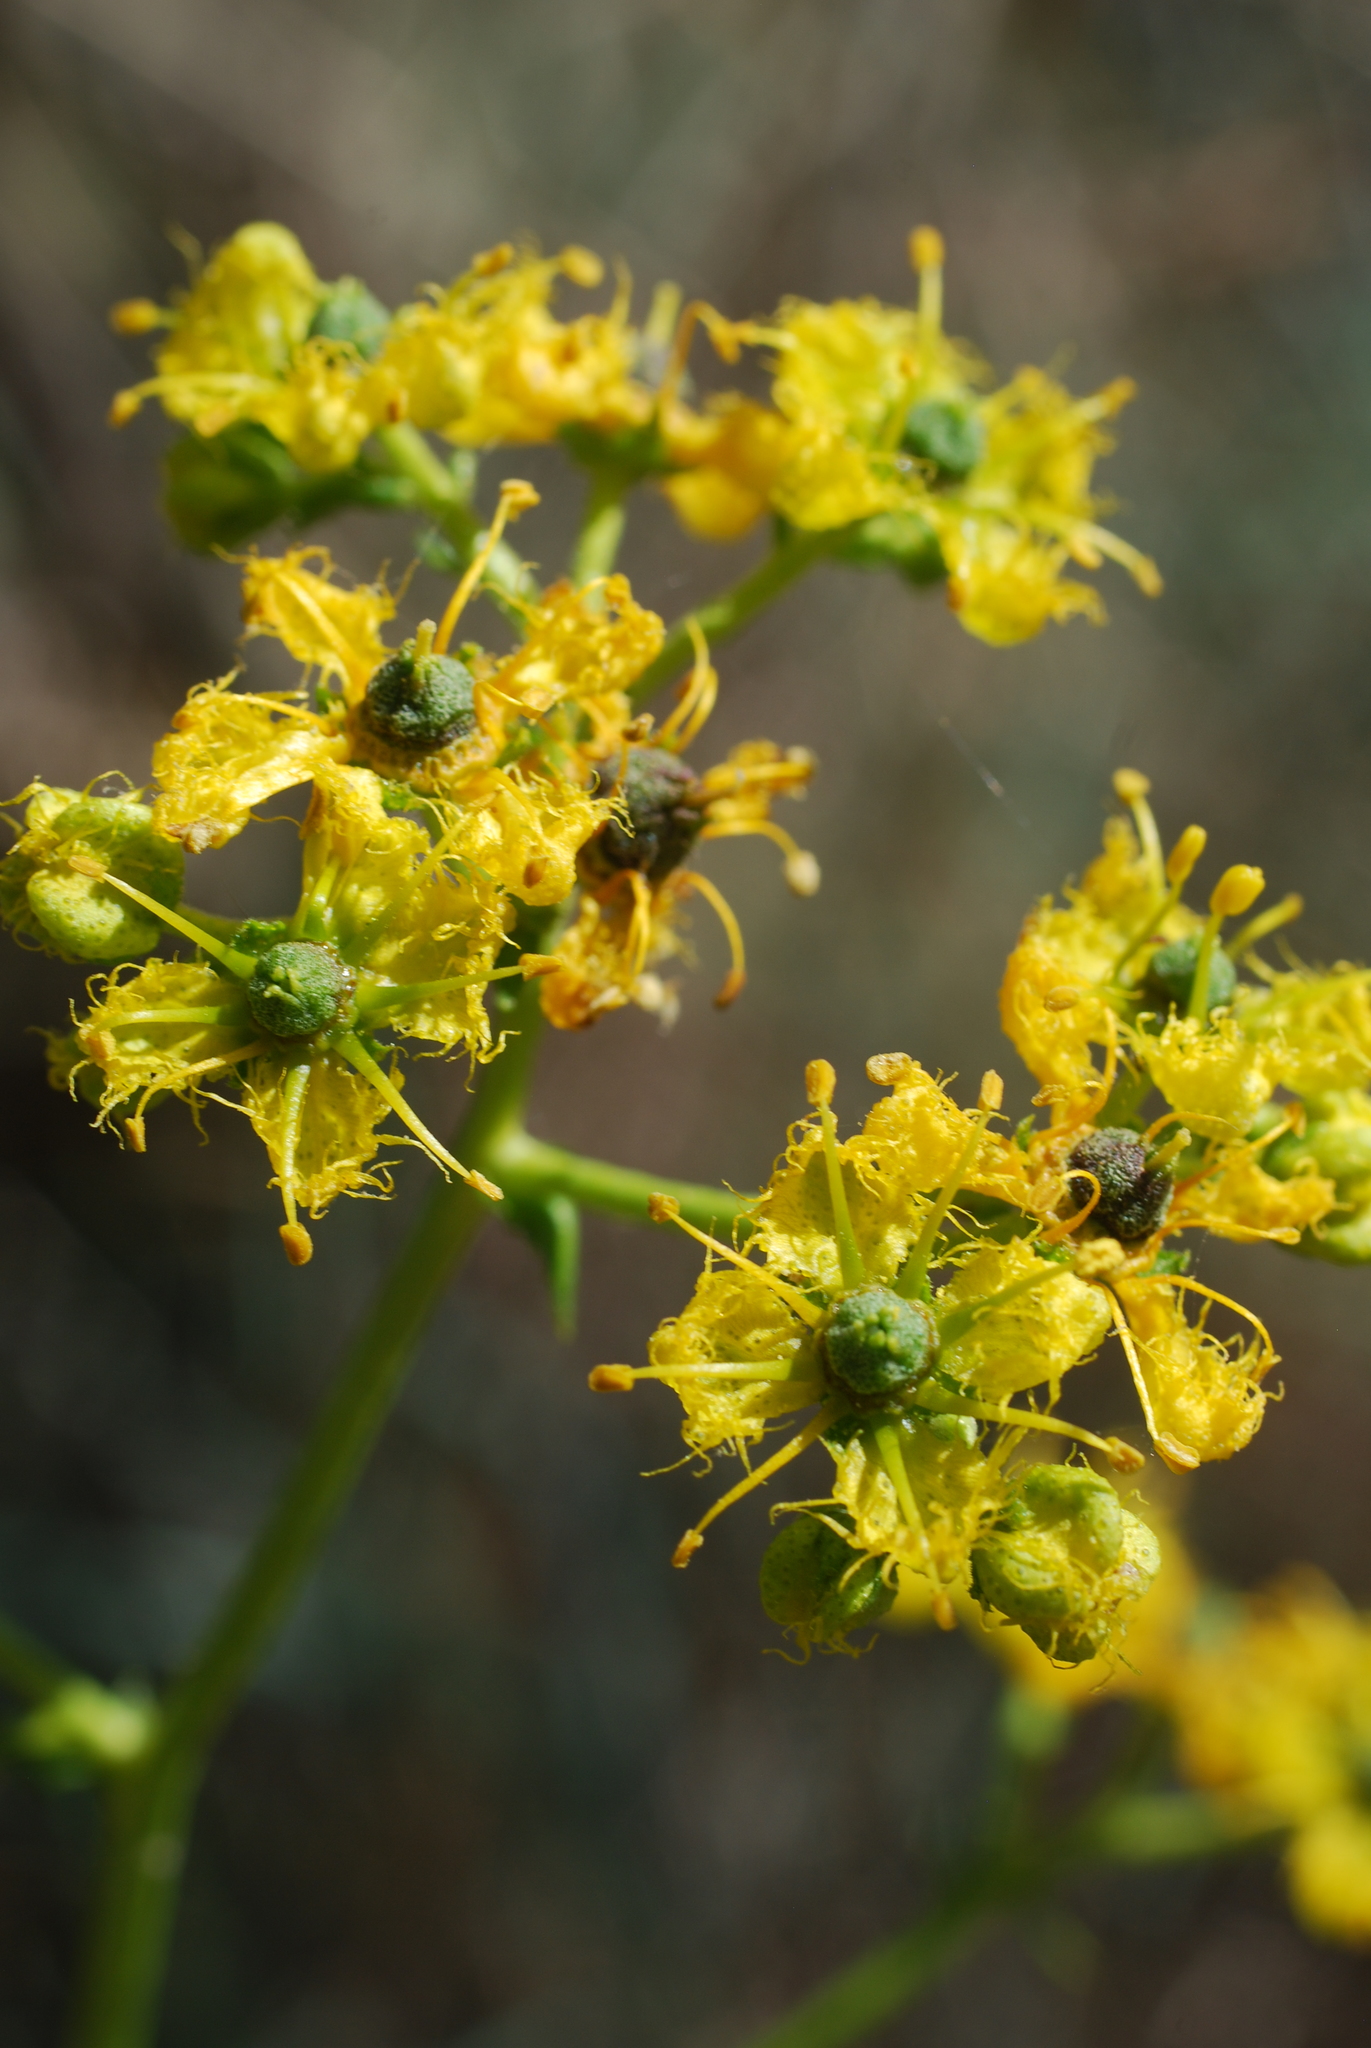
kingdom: Plantae
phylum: Tracheophyta
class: Magnoliopsida
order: Sapindales
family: Rutaceae
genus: Ruta
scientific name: Ruta chalepensis
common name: Fringed rue
